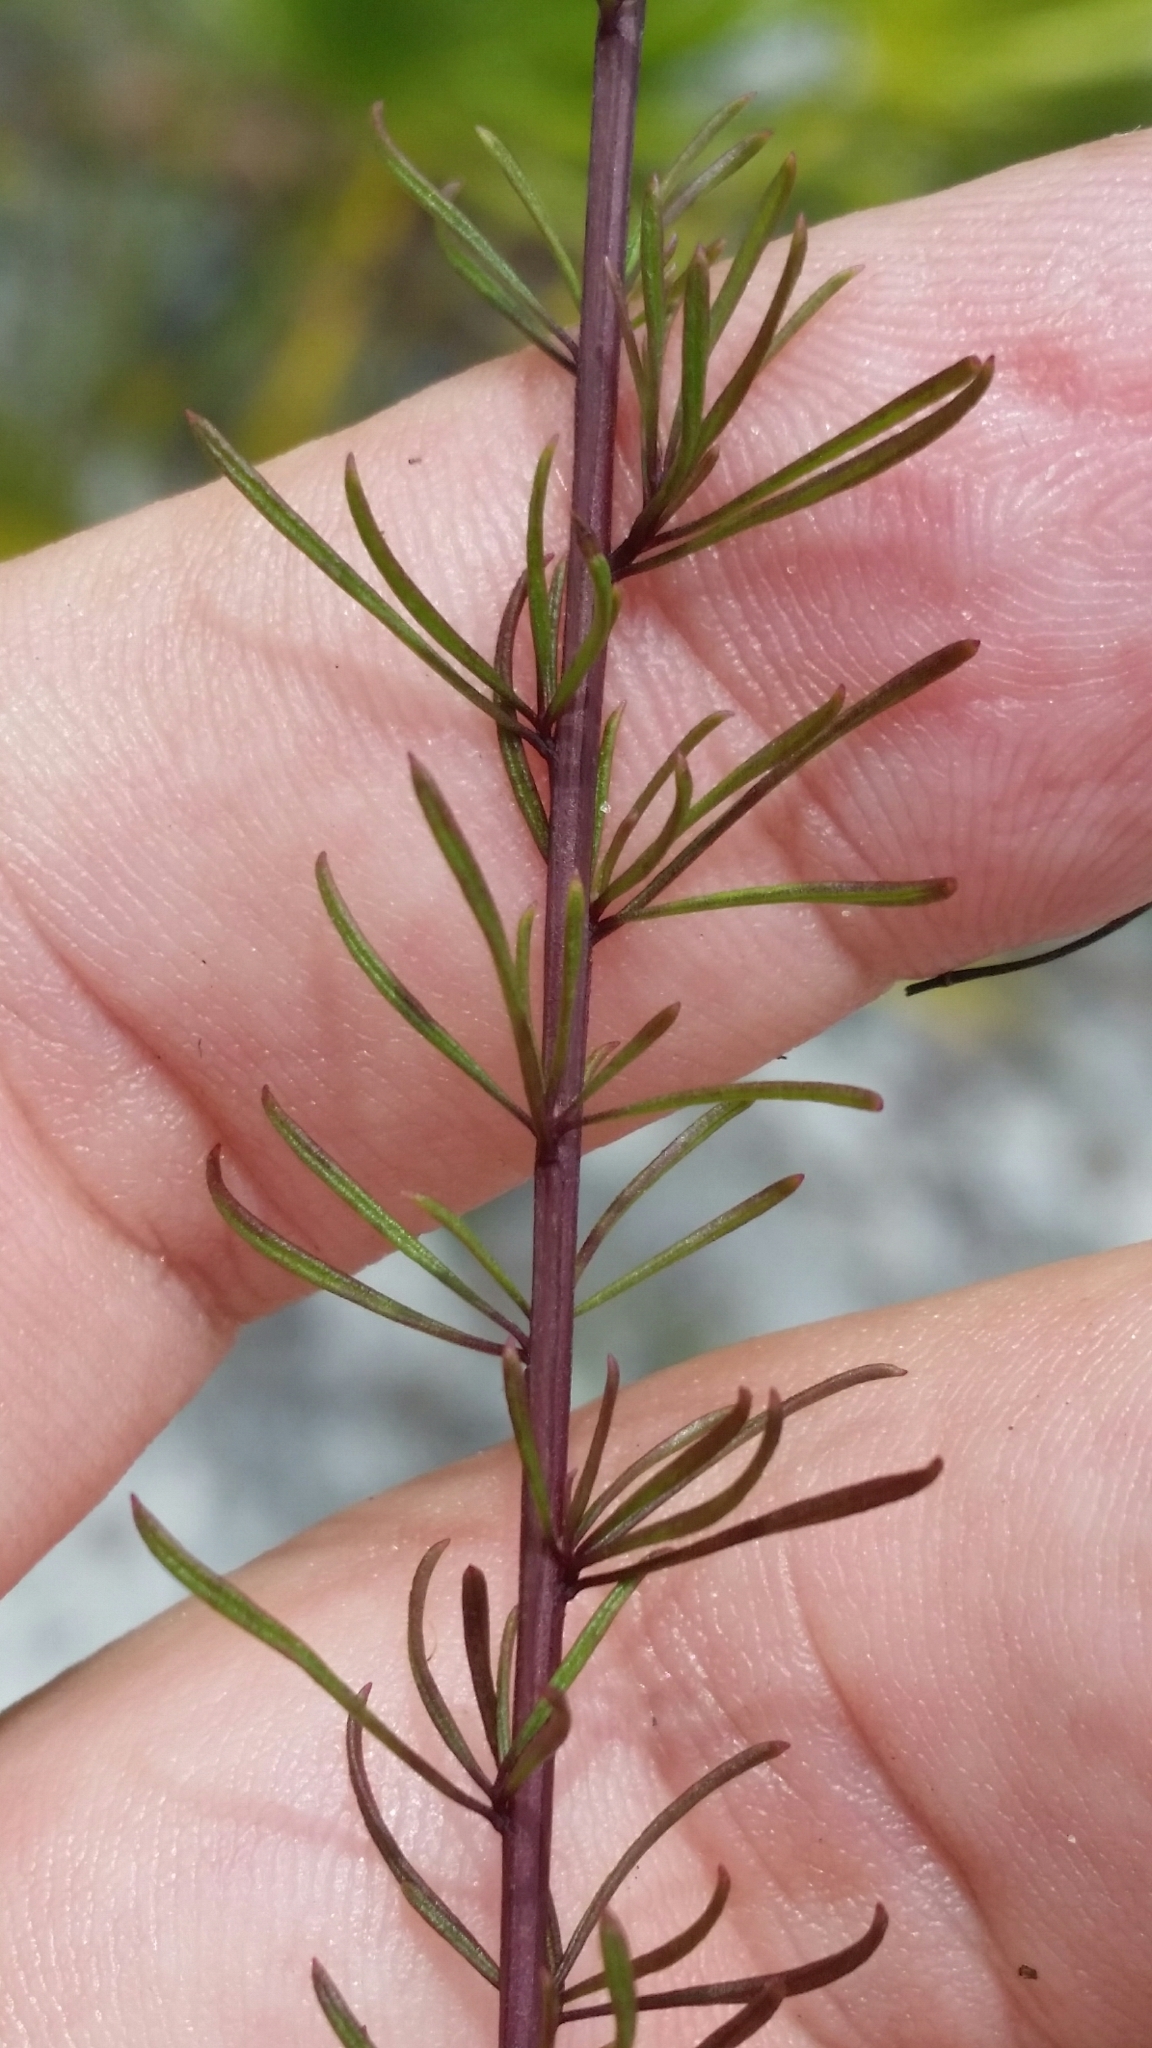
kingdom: Plantae
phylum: Tracheophyta
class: Magnoliopsida
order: Lamiales
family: Orobanchaceae
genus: Agalinis
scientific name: Agalinis filifolia
